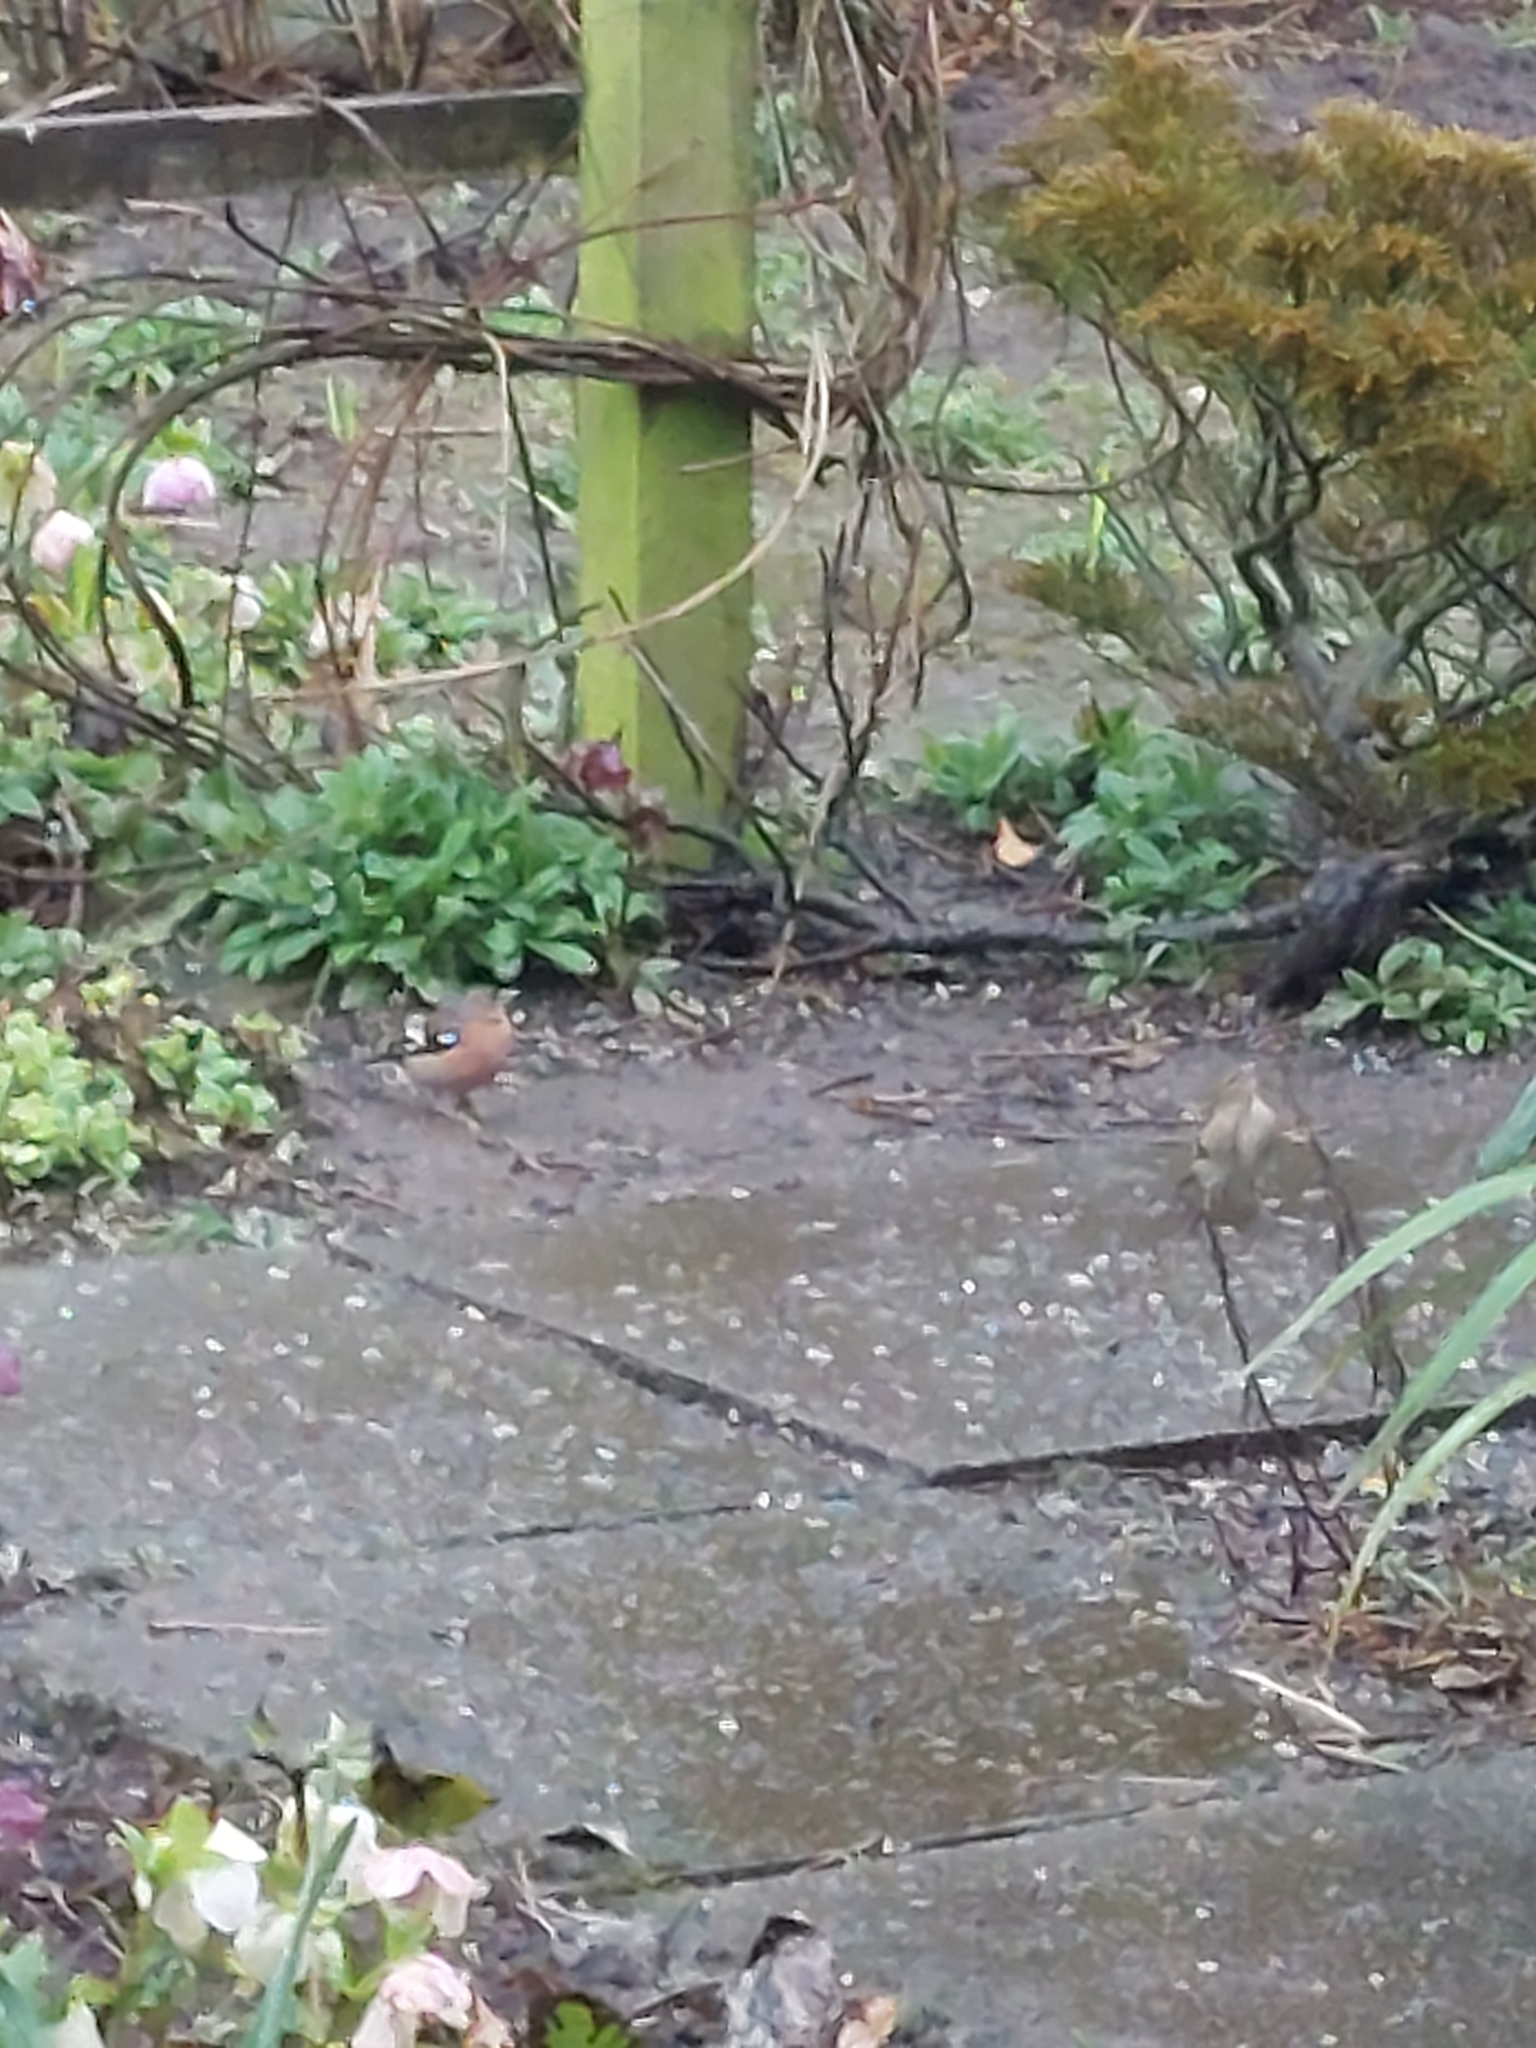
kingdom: Animalia
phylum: Chordata
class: Aves
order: Passeriformes
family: Fringillidae
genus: Fringilla
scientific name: Fringilla coelebs
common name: Common chaffinch
